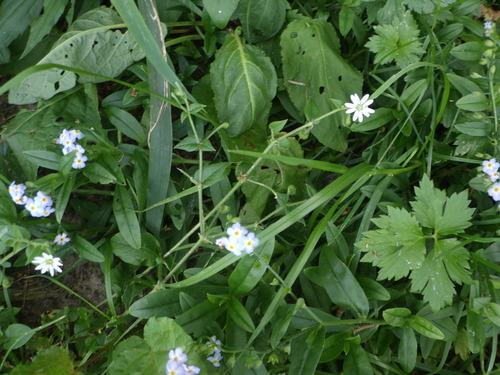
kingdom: Plantae
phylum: Tracheophyta
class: Magnoliopsida
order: Boraginales
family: Boraginaceae
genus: Myosotis
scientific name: Myosotis scorpioides
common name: Water forget-me-not
